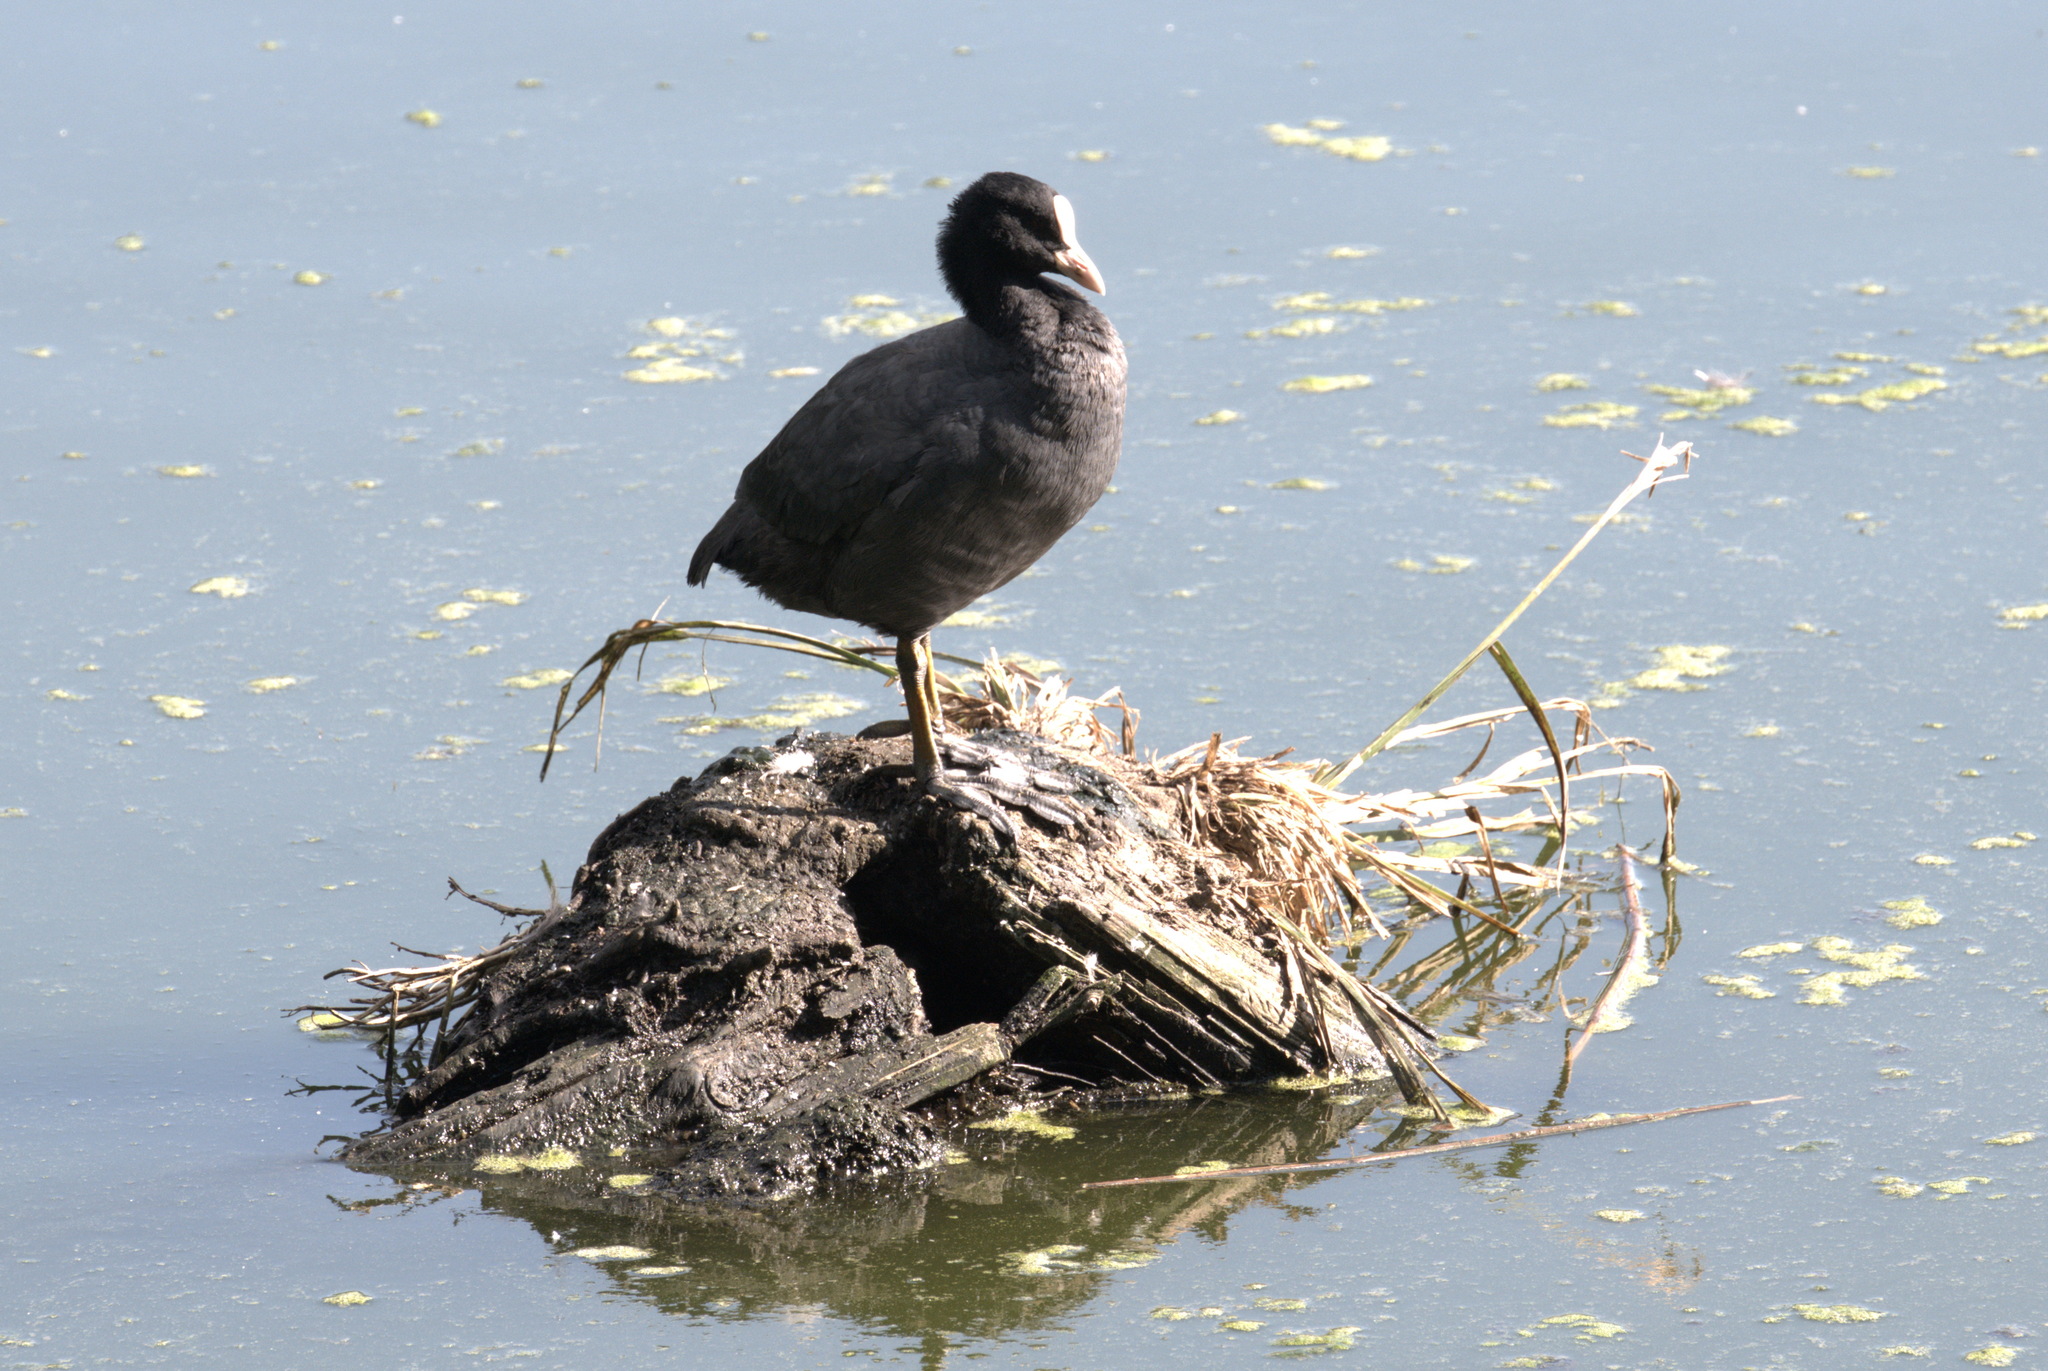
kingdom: Animalia
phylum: Chordata
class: Aves
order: Gruiformes
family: Rallidae
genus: Fulica
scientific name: Fulica atra
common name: Eurasian coot
